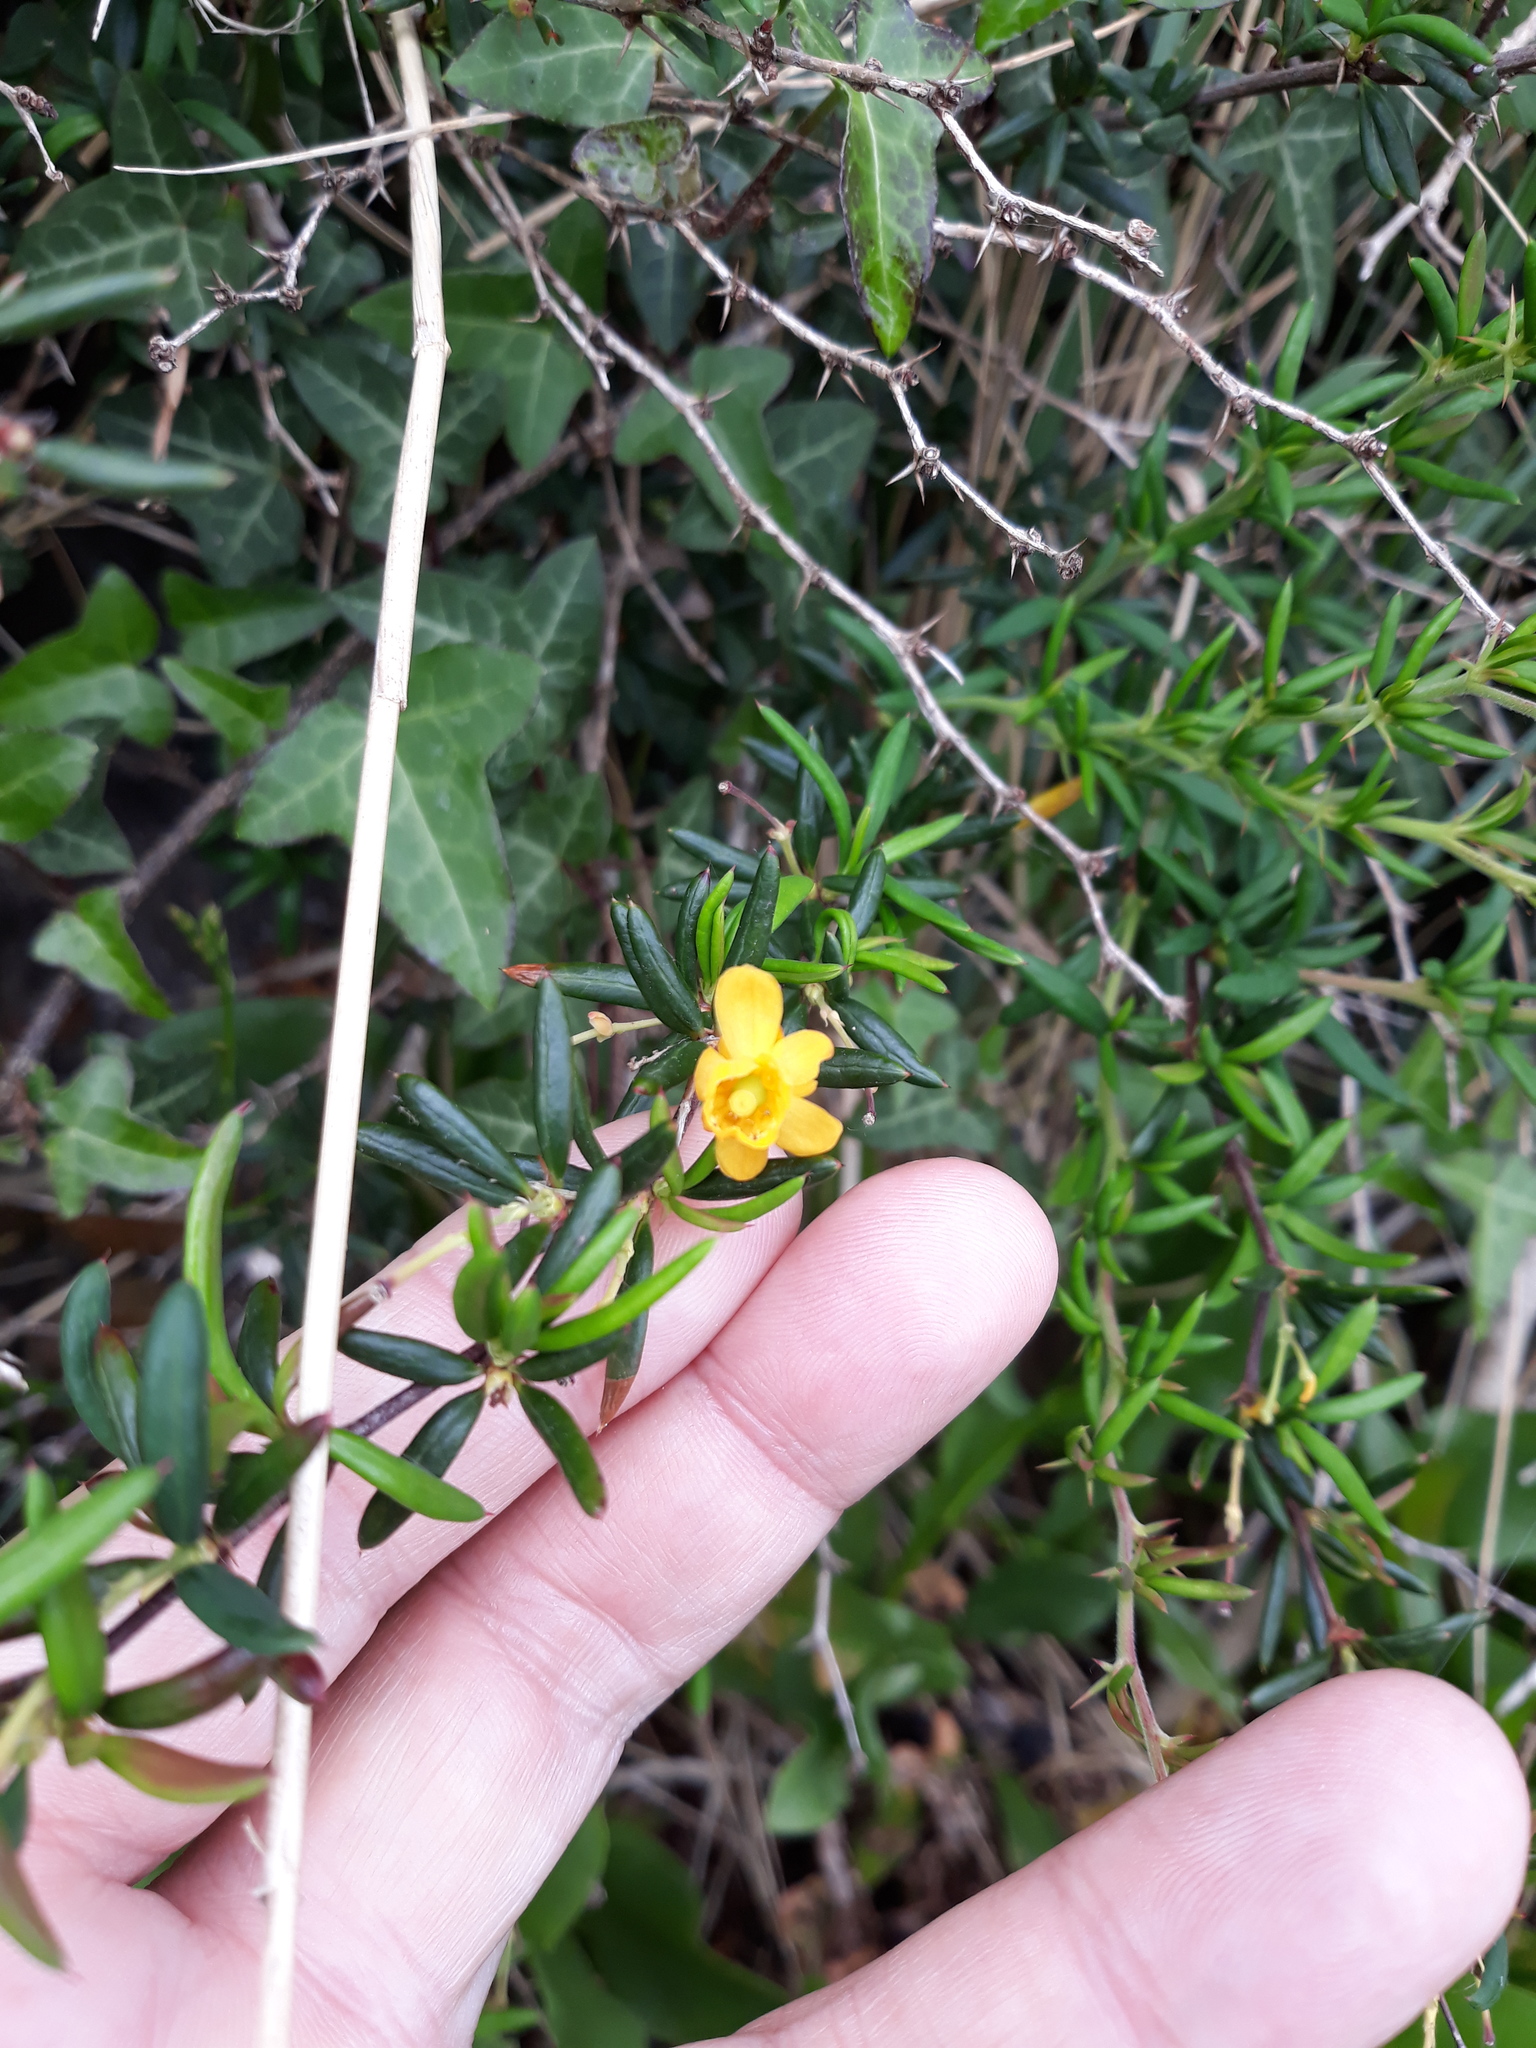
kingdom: Plantae
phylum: Tracheophyta
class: Magnoliopsida
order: Ranunculales
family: Berberidaceae
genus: Berberis
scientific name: Berberis stenophylla
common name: Hedge barberry
